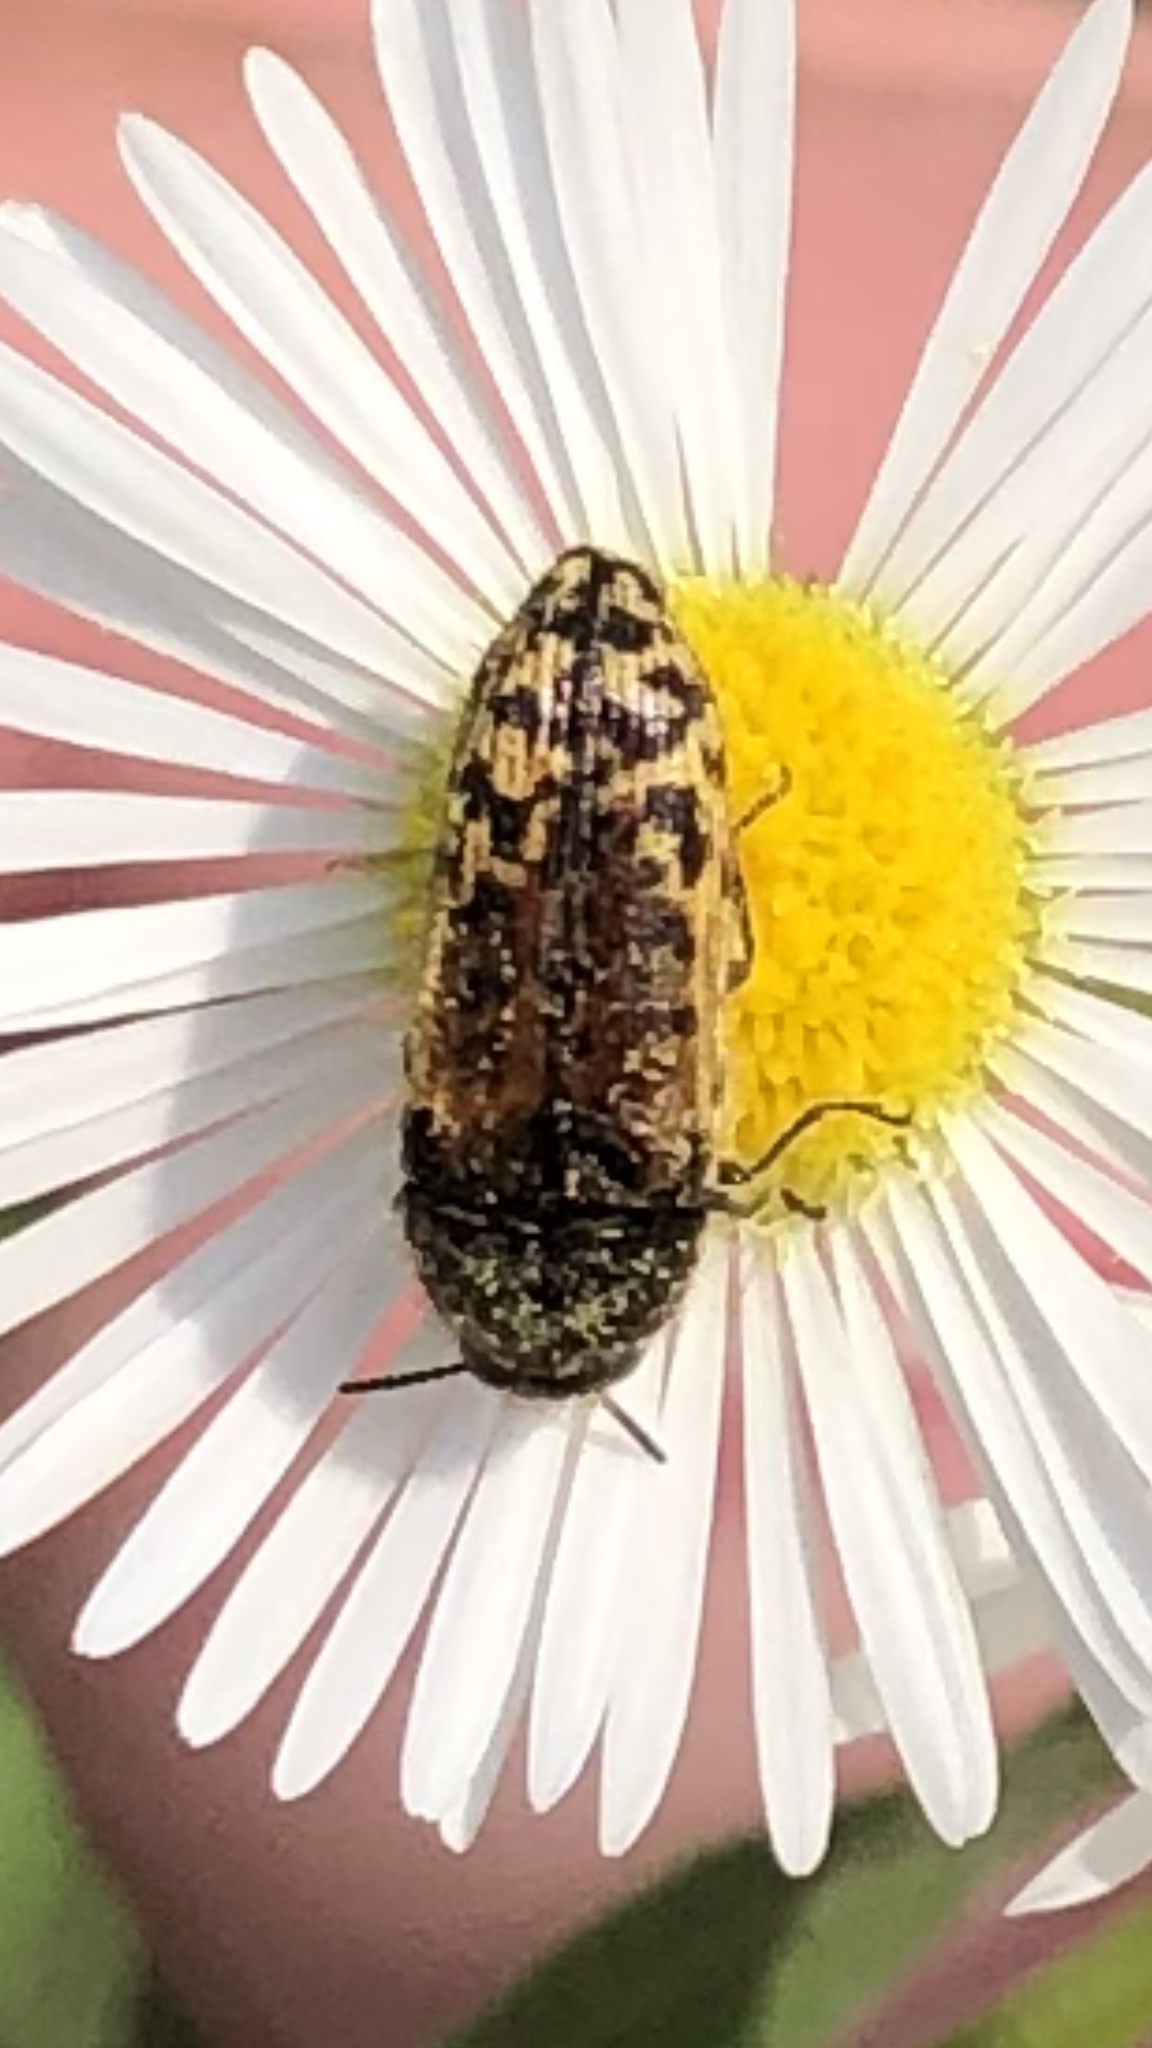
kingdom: Animalia
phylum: Arthropoda
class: Insecta
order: Coleoptera
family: Buprestidae
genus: Acmaeodera
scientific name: Acmaeodera mixta
